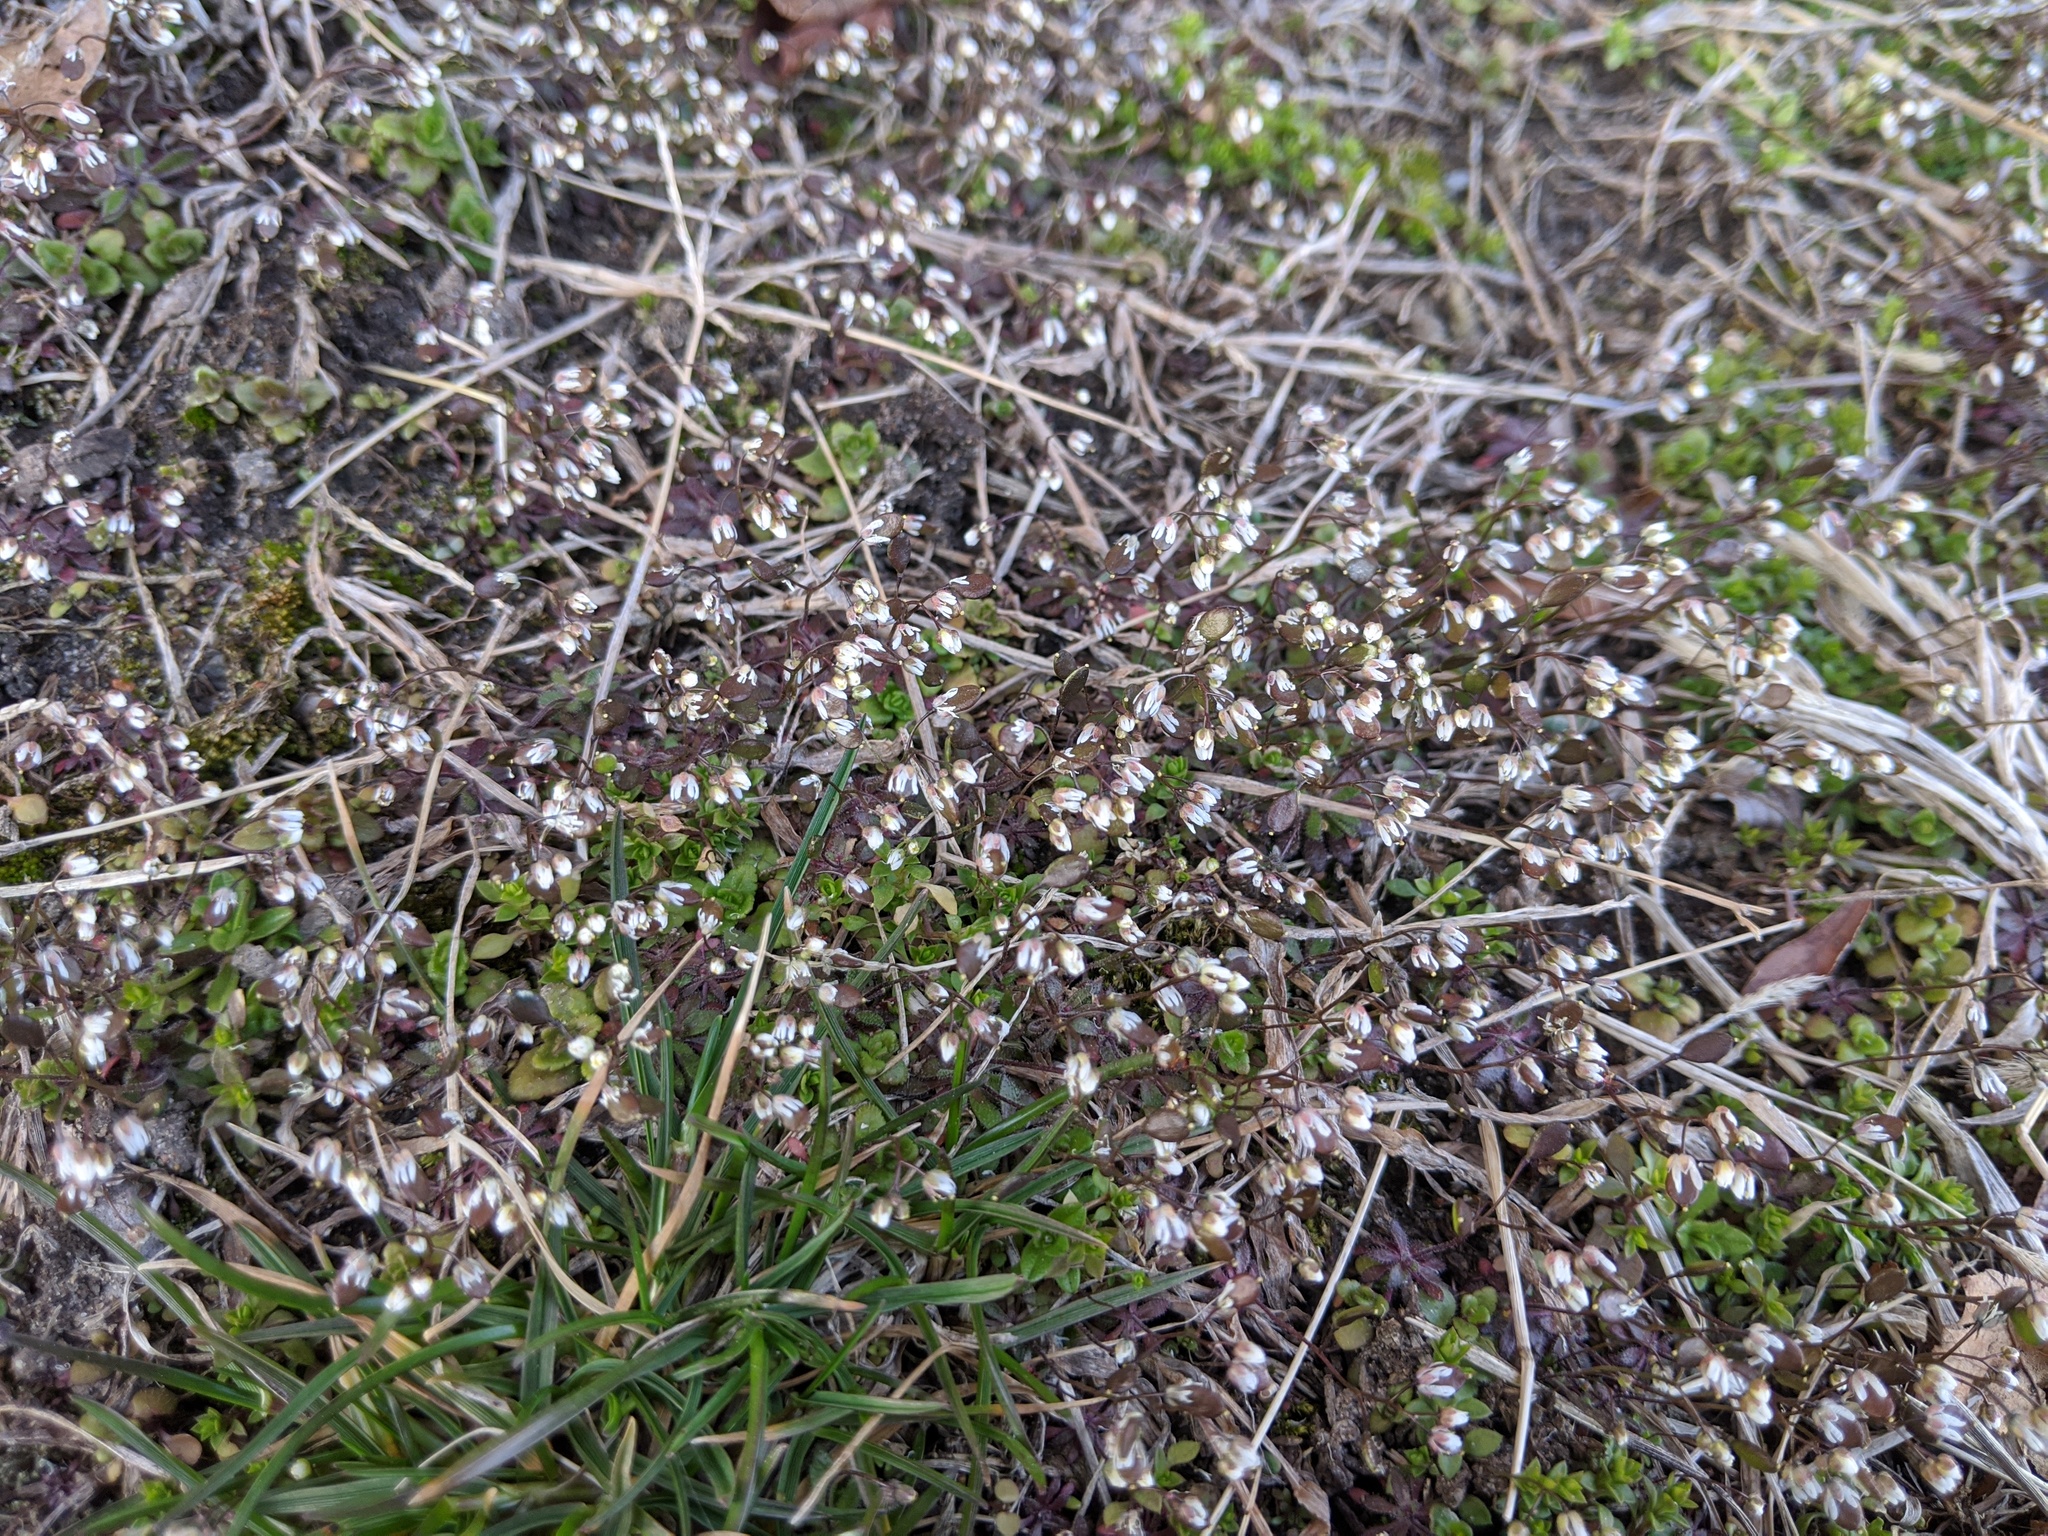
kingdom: Plantae
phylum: Tracheophyta
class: Magnoliopsida
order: Brassicales
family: Brassicaceae
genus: Draba
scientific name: Draba verna
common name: Spring draba
